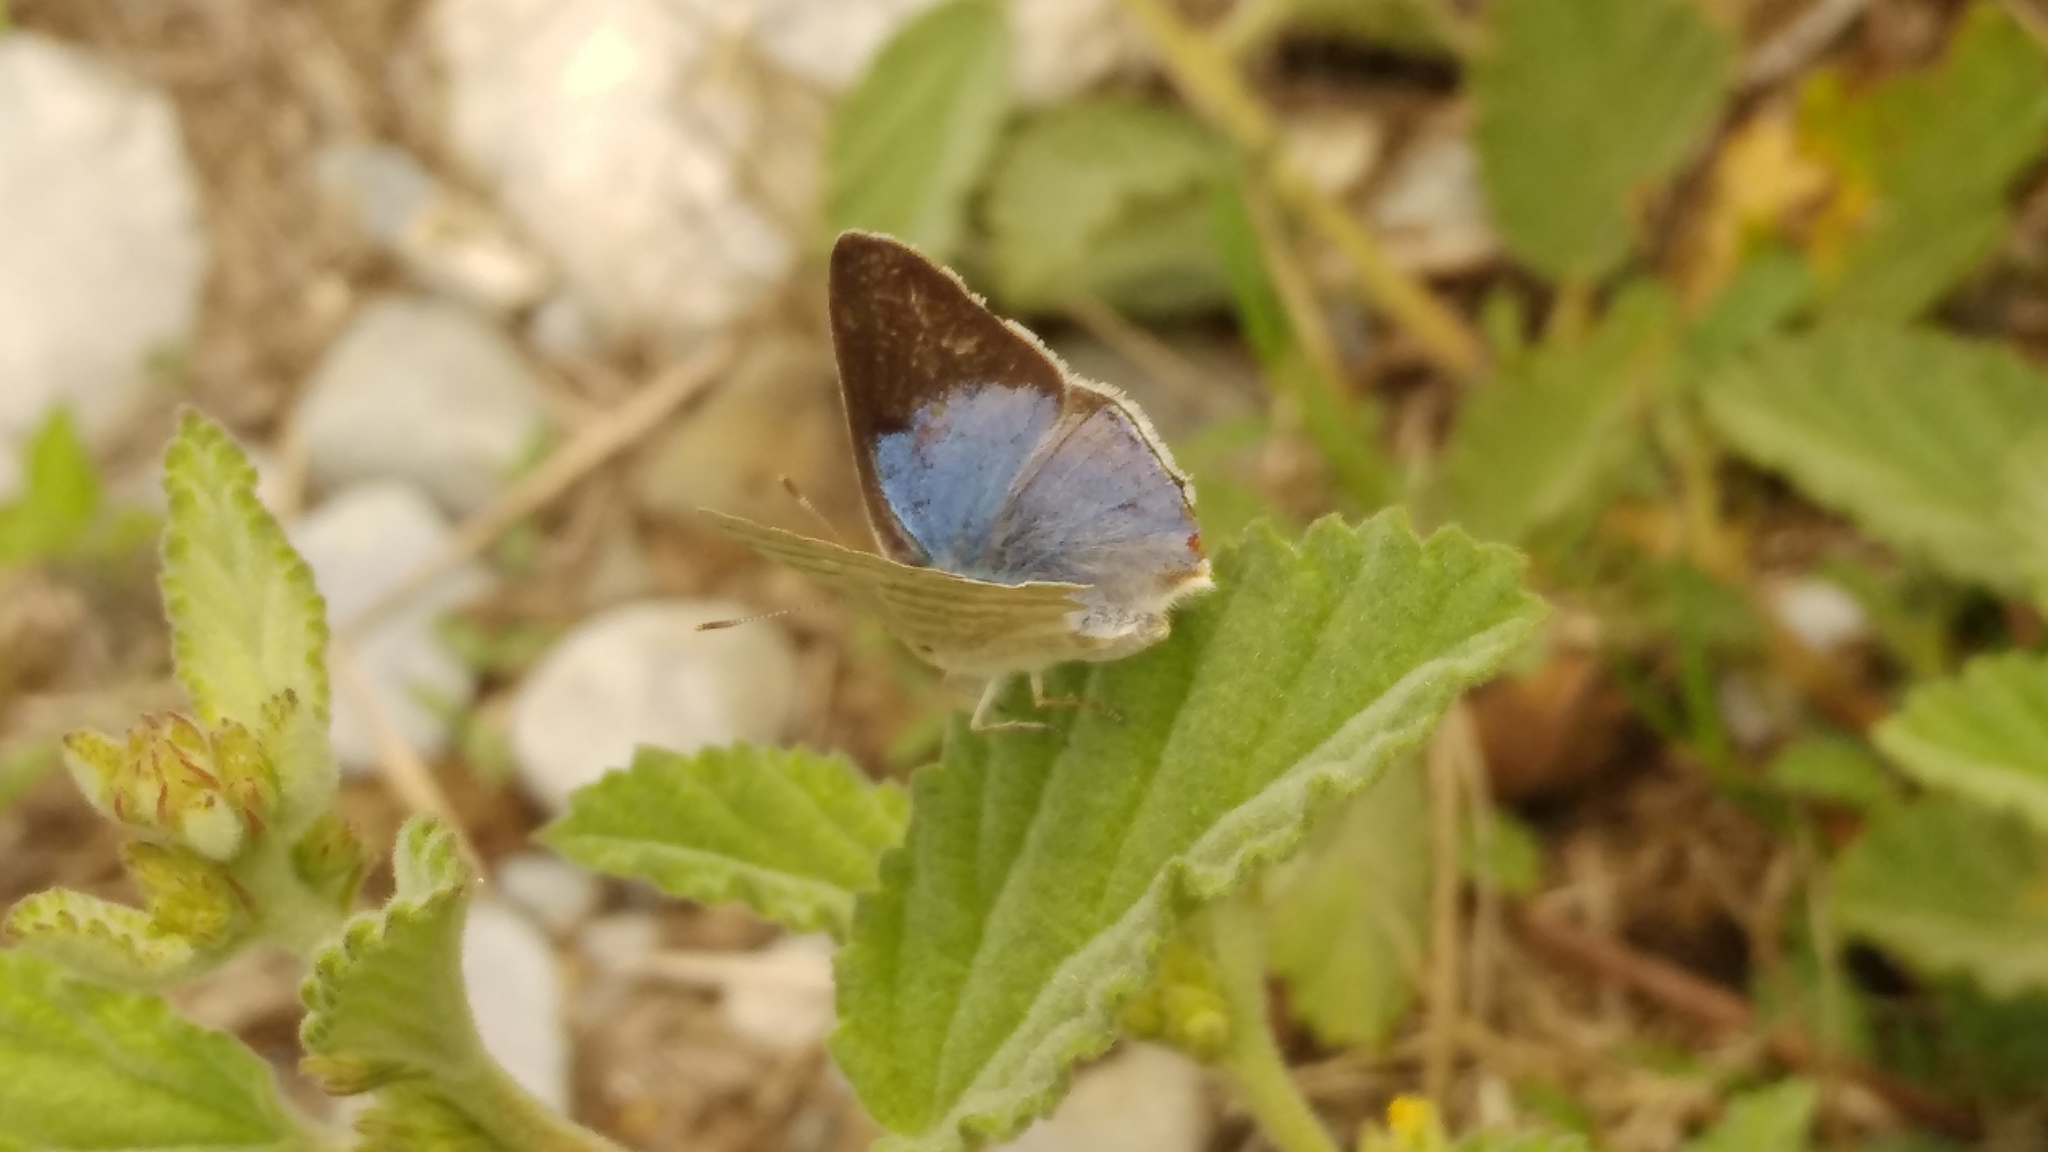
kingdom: Animalia
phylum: Arthropoda
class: Insecta
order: Lepidoptera
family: Lycaenidae
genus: Dolymorpha
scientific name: Dolymorpha jada
